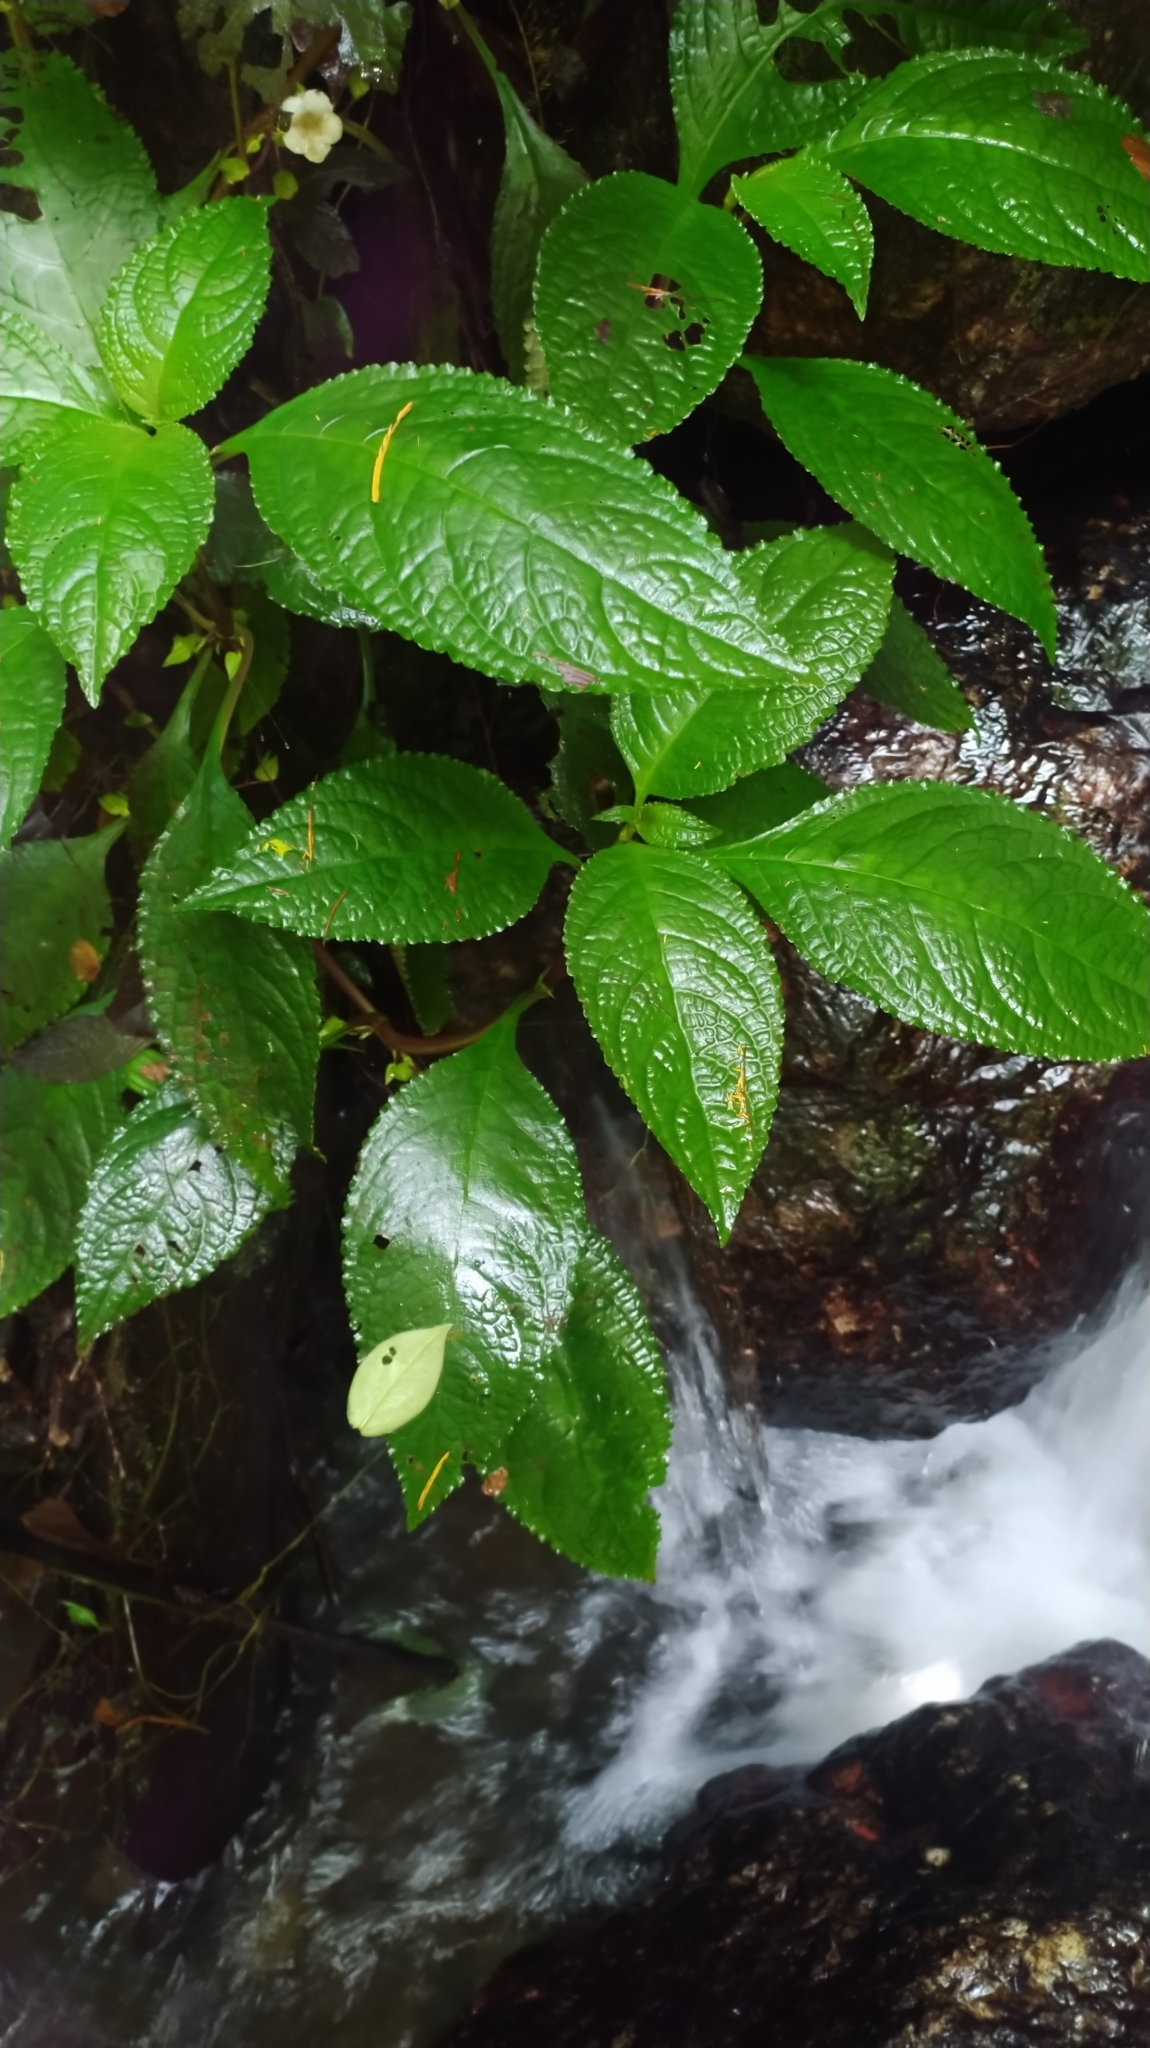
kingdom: Plantae
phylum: Tracheophyta
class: Magnoliopsida
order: Lamiales
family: Gesneriaceae
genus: Nautilocalyx
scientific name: Nautilocalyx mimuloides
